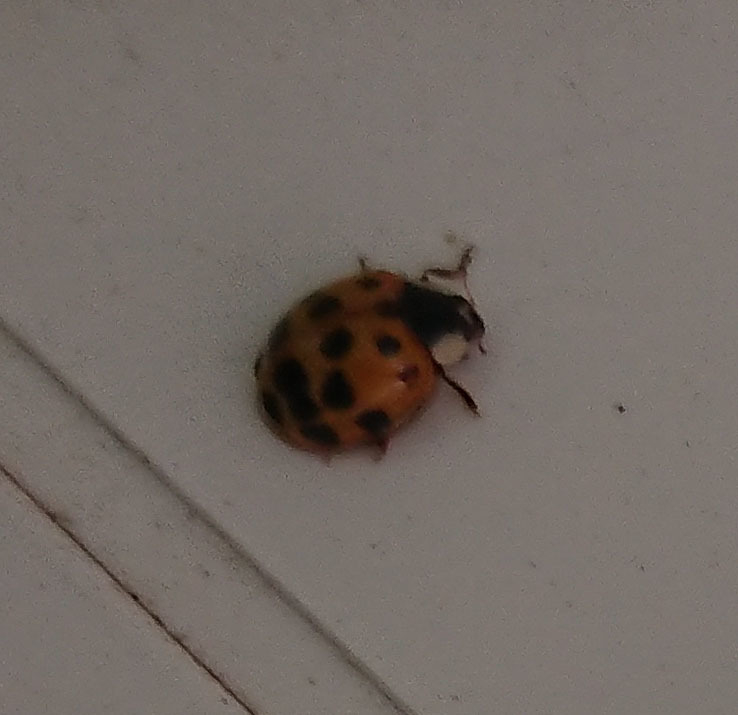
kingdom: Animalia
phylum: Arthropoda
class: Insecta
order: Coleoptera
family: Coccinellidae
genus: Harmonia
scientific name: Harmonia axyridis
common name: Harlequin ladybird
